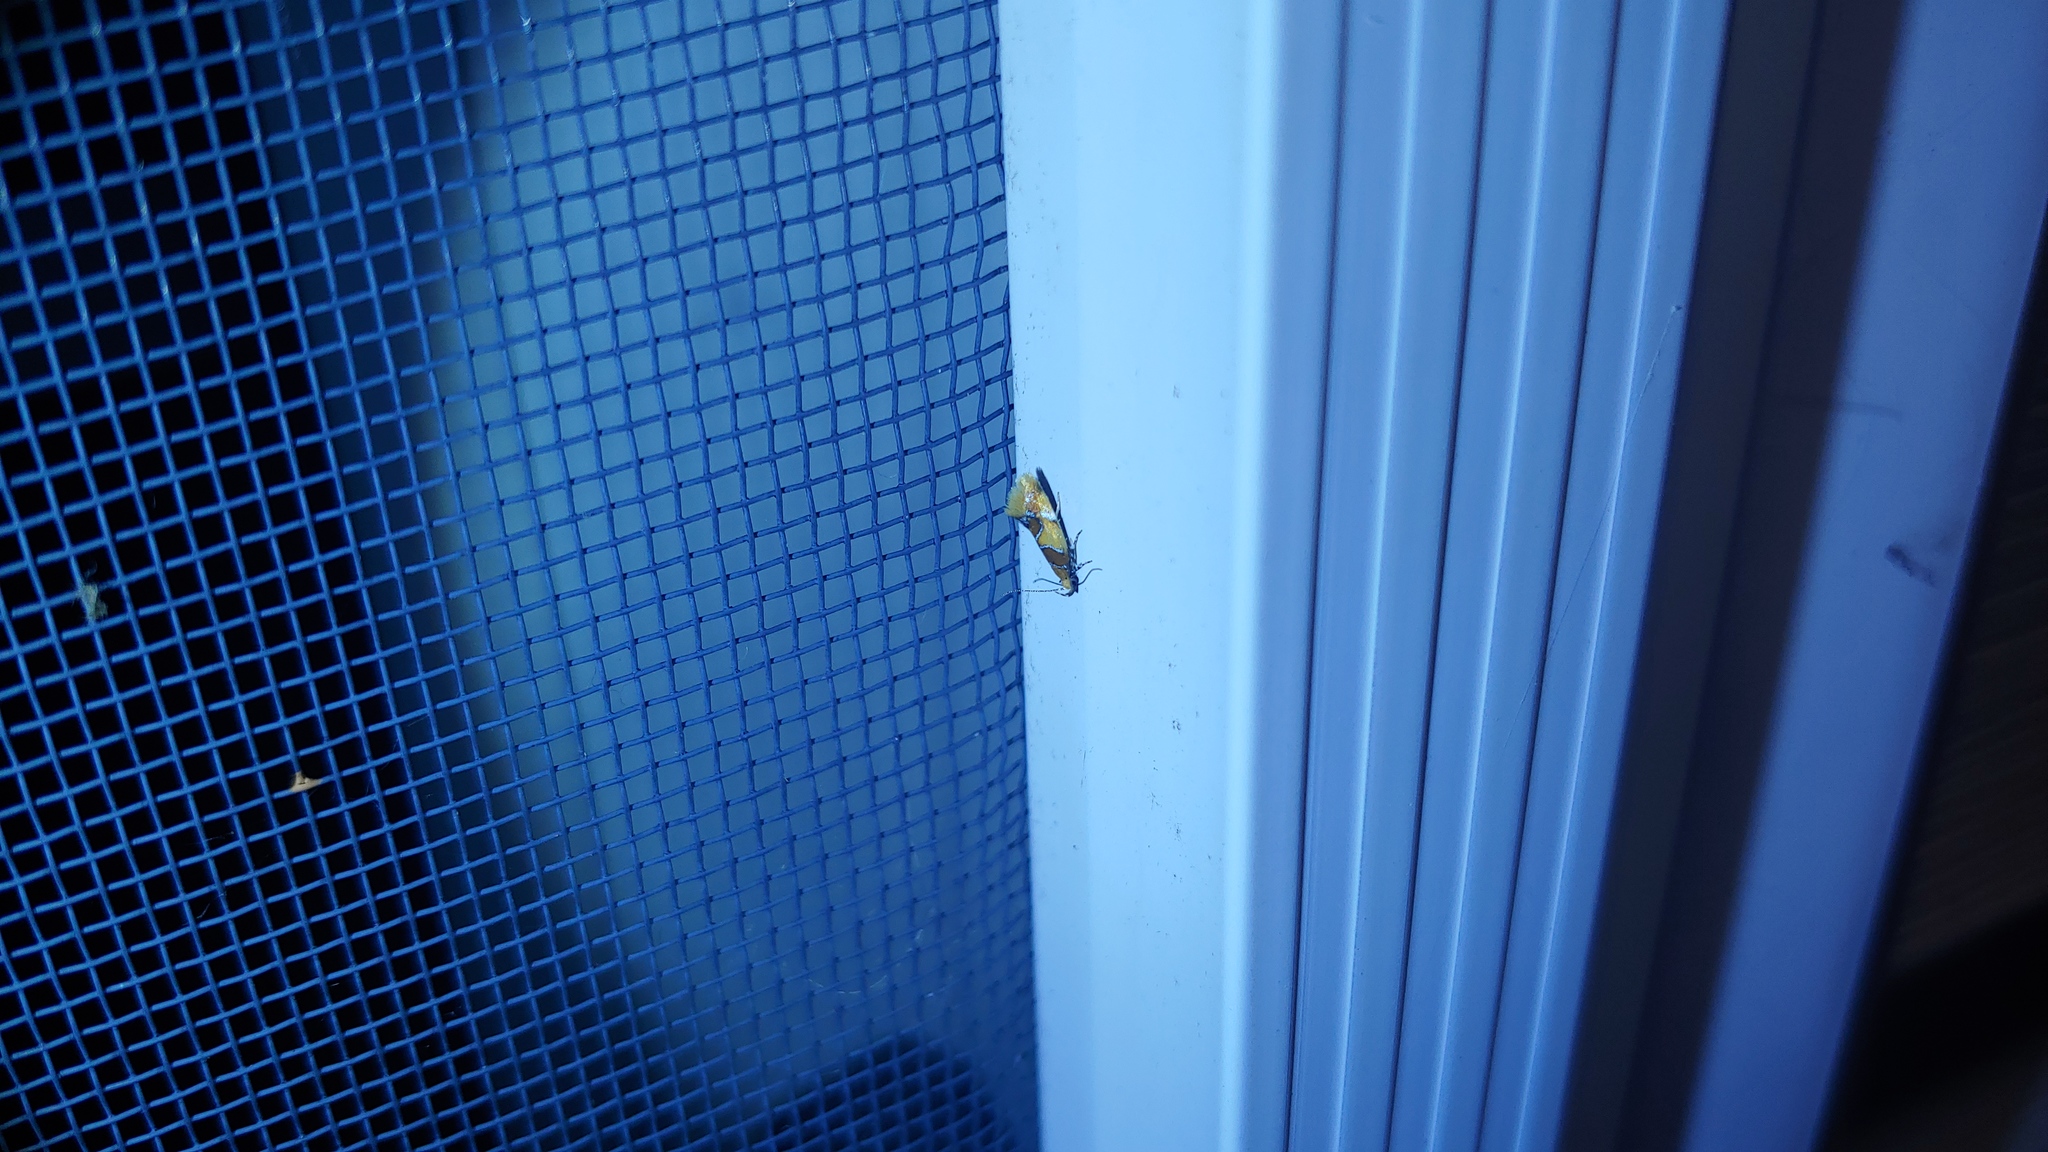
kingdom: Animalia
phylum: Arthropoda
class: Insecta
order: Lepidoptera
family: Oecophoridae
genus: Callima
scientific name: Callima argenticinctella
